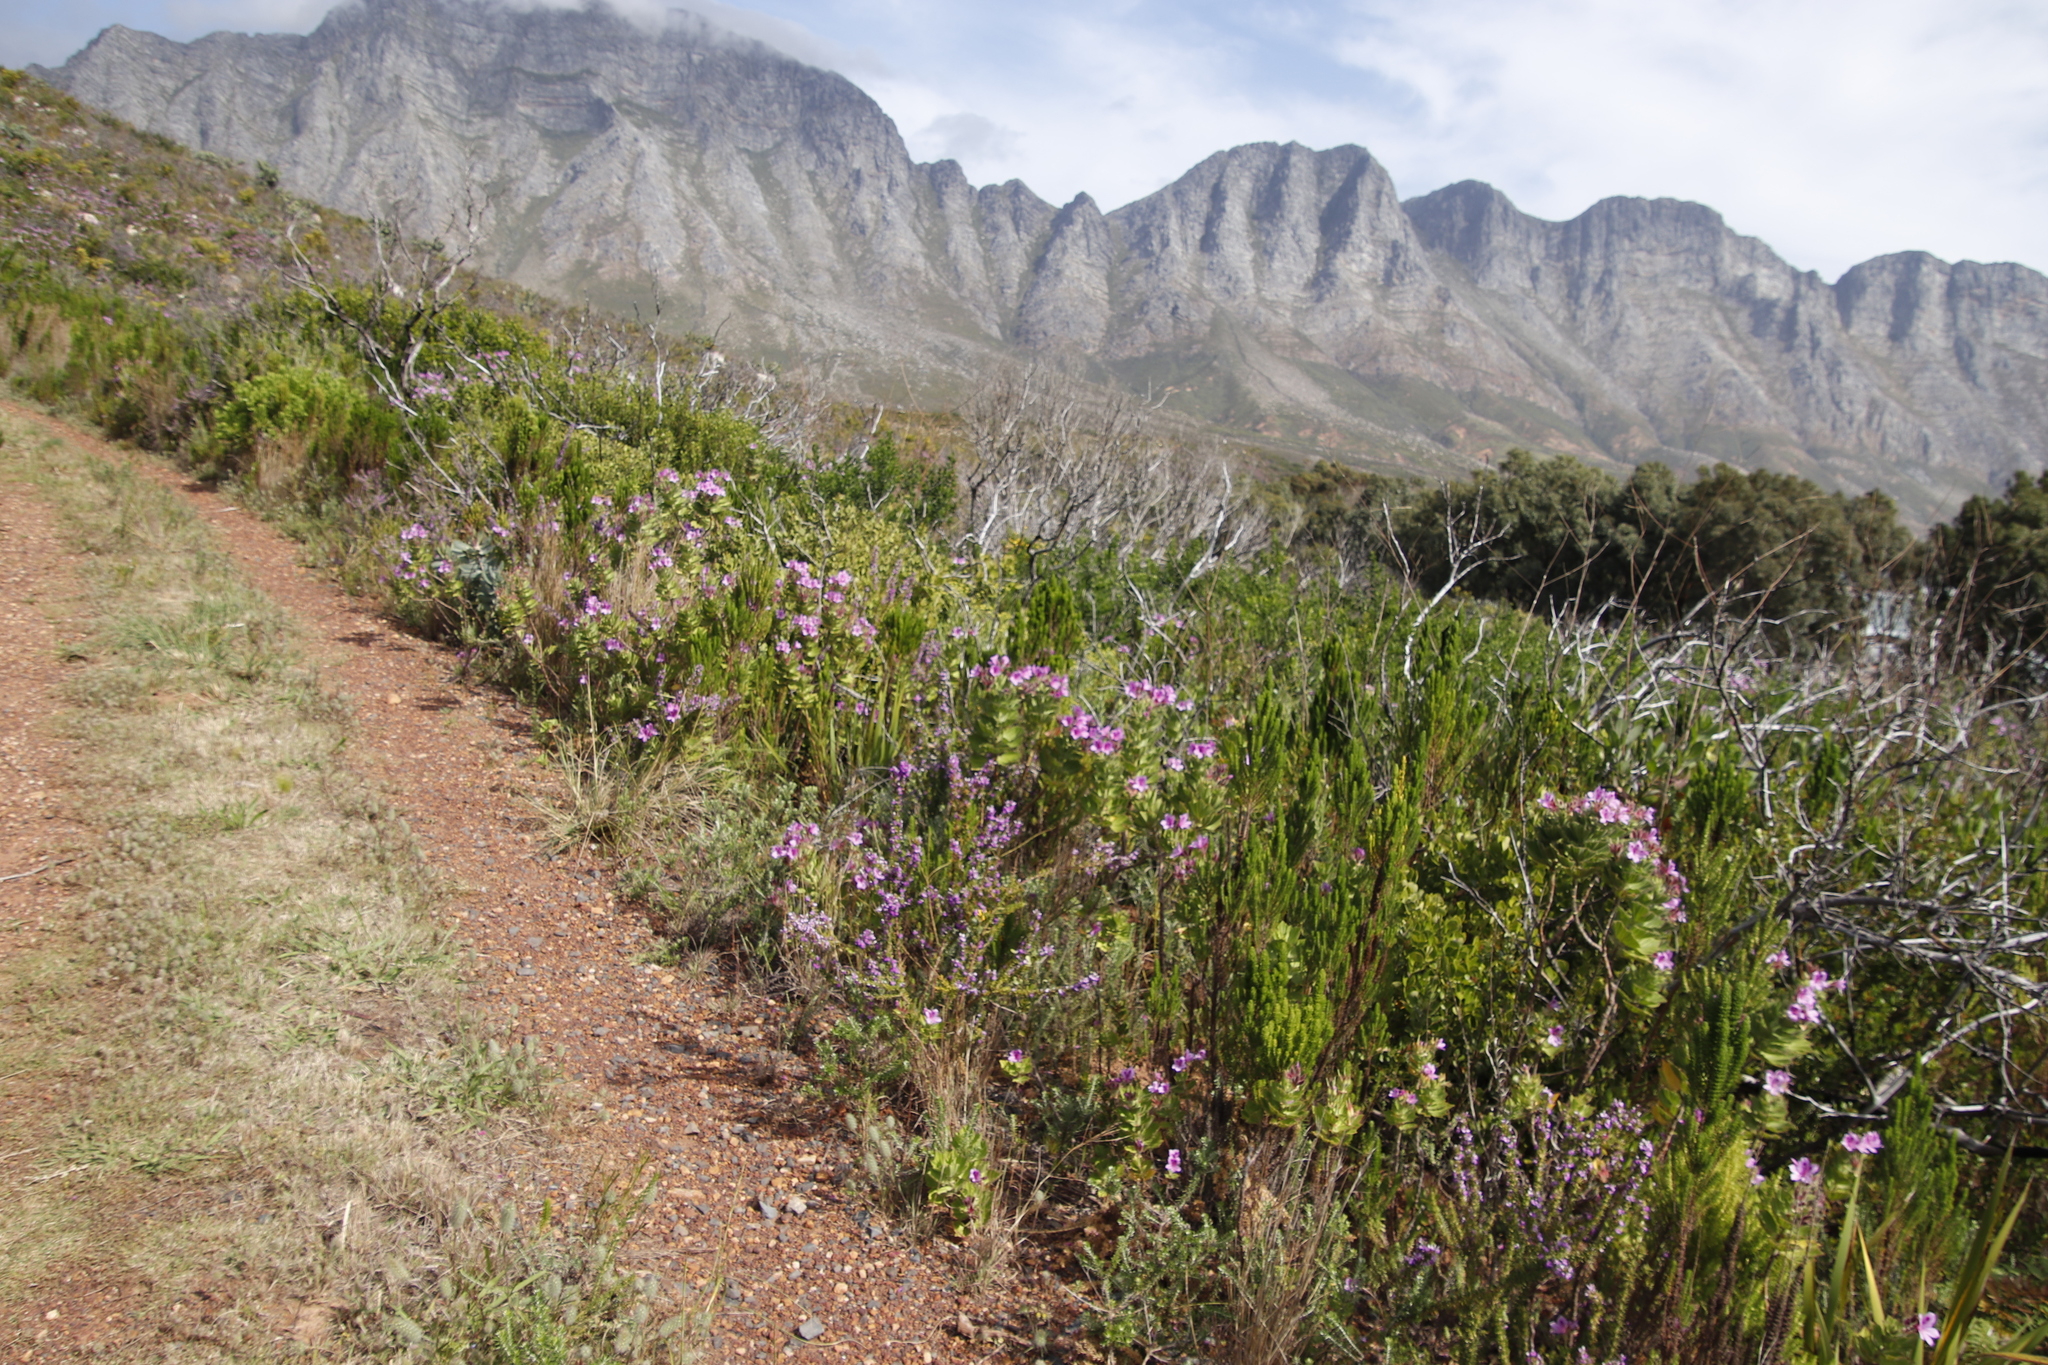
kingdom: Plantae
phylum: Tracheophyta
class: Magnoliopsida
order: Geraniales
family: Geraniaceae
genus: Pelargonium
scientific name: Pelargonium cucullatum
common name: Tree pelargonium
